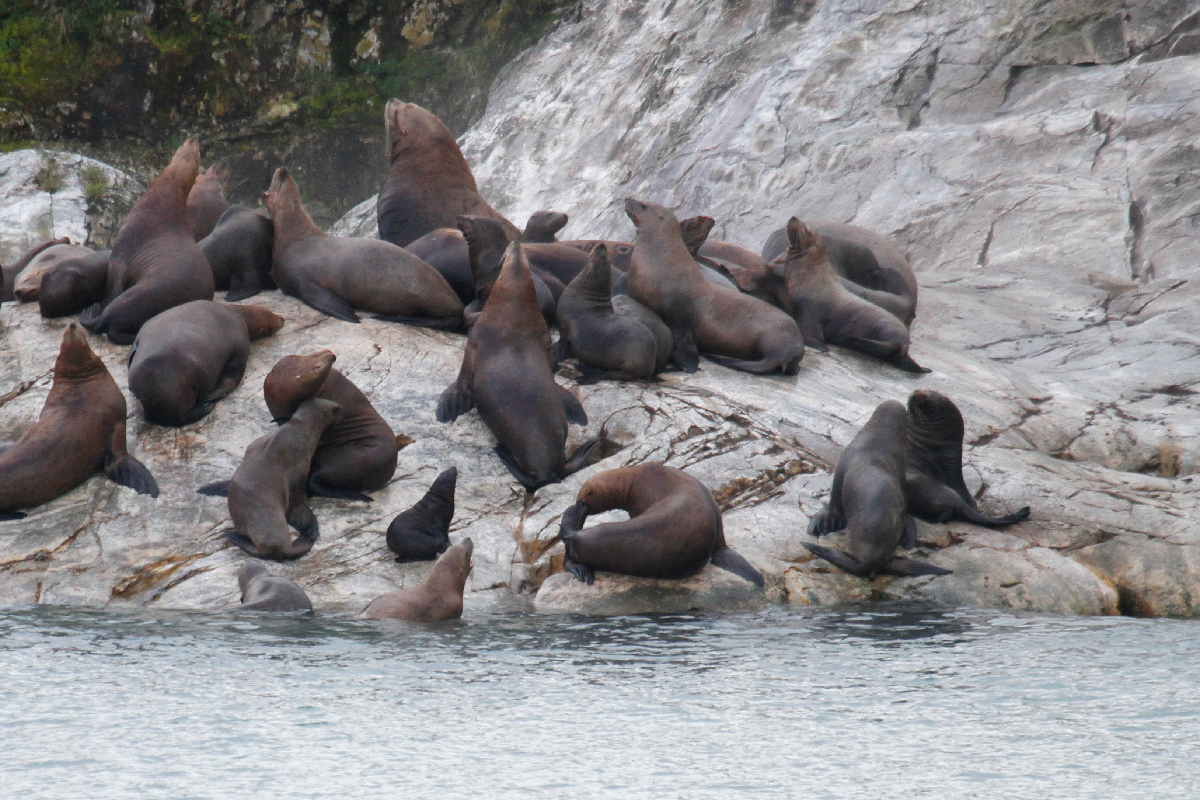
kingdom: Animalia
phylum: Chordata
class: Mammalia
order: Carnivora
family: Otariidae
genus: Eumetopias
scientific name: Eumetopias jubatus
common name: Steller sea lion
